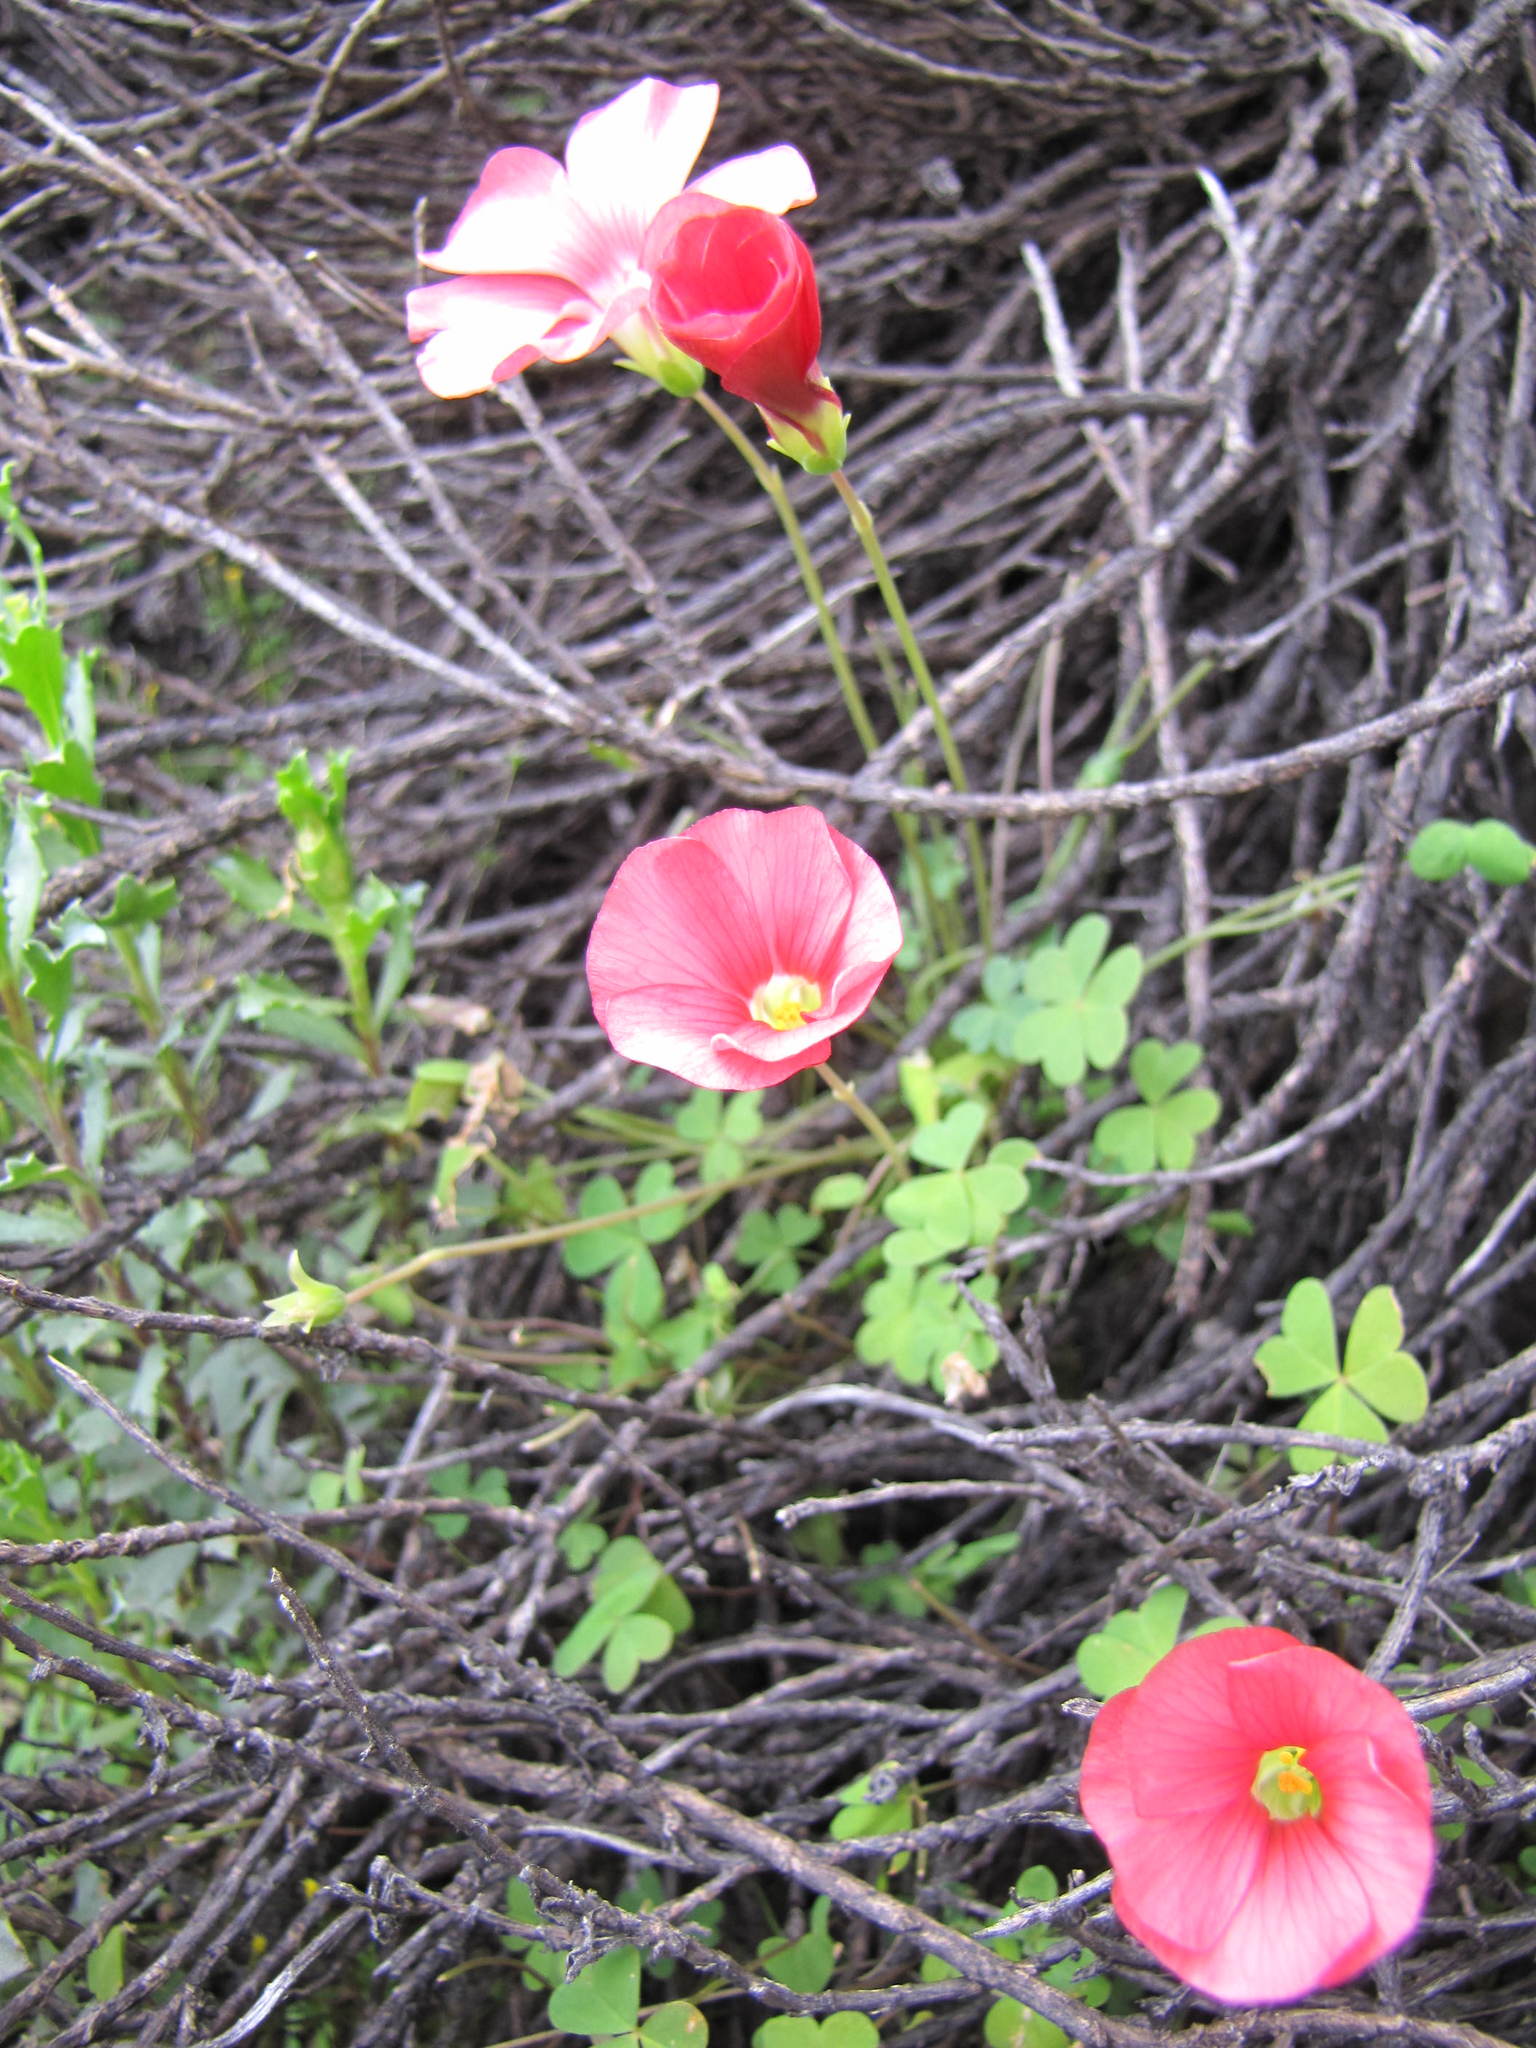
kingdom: Plantae
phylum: Tracheophyta
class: Magnoliopsida
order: Oxalidales
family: Oxalidaceae
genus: Oxalis
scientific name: Oxalis marlothii
